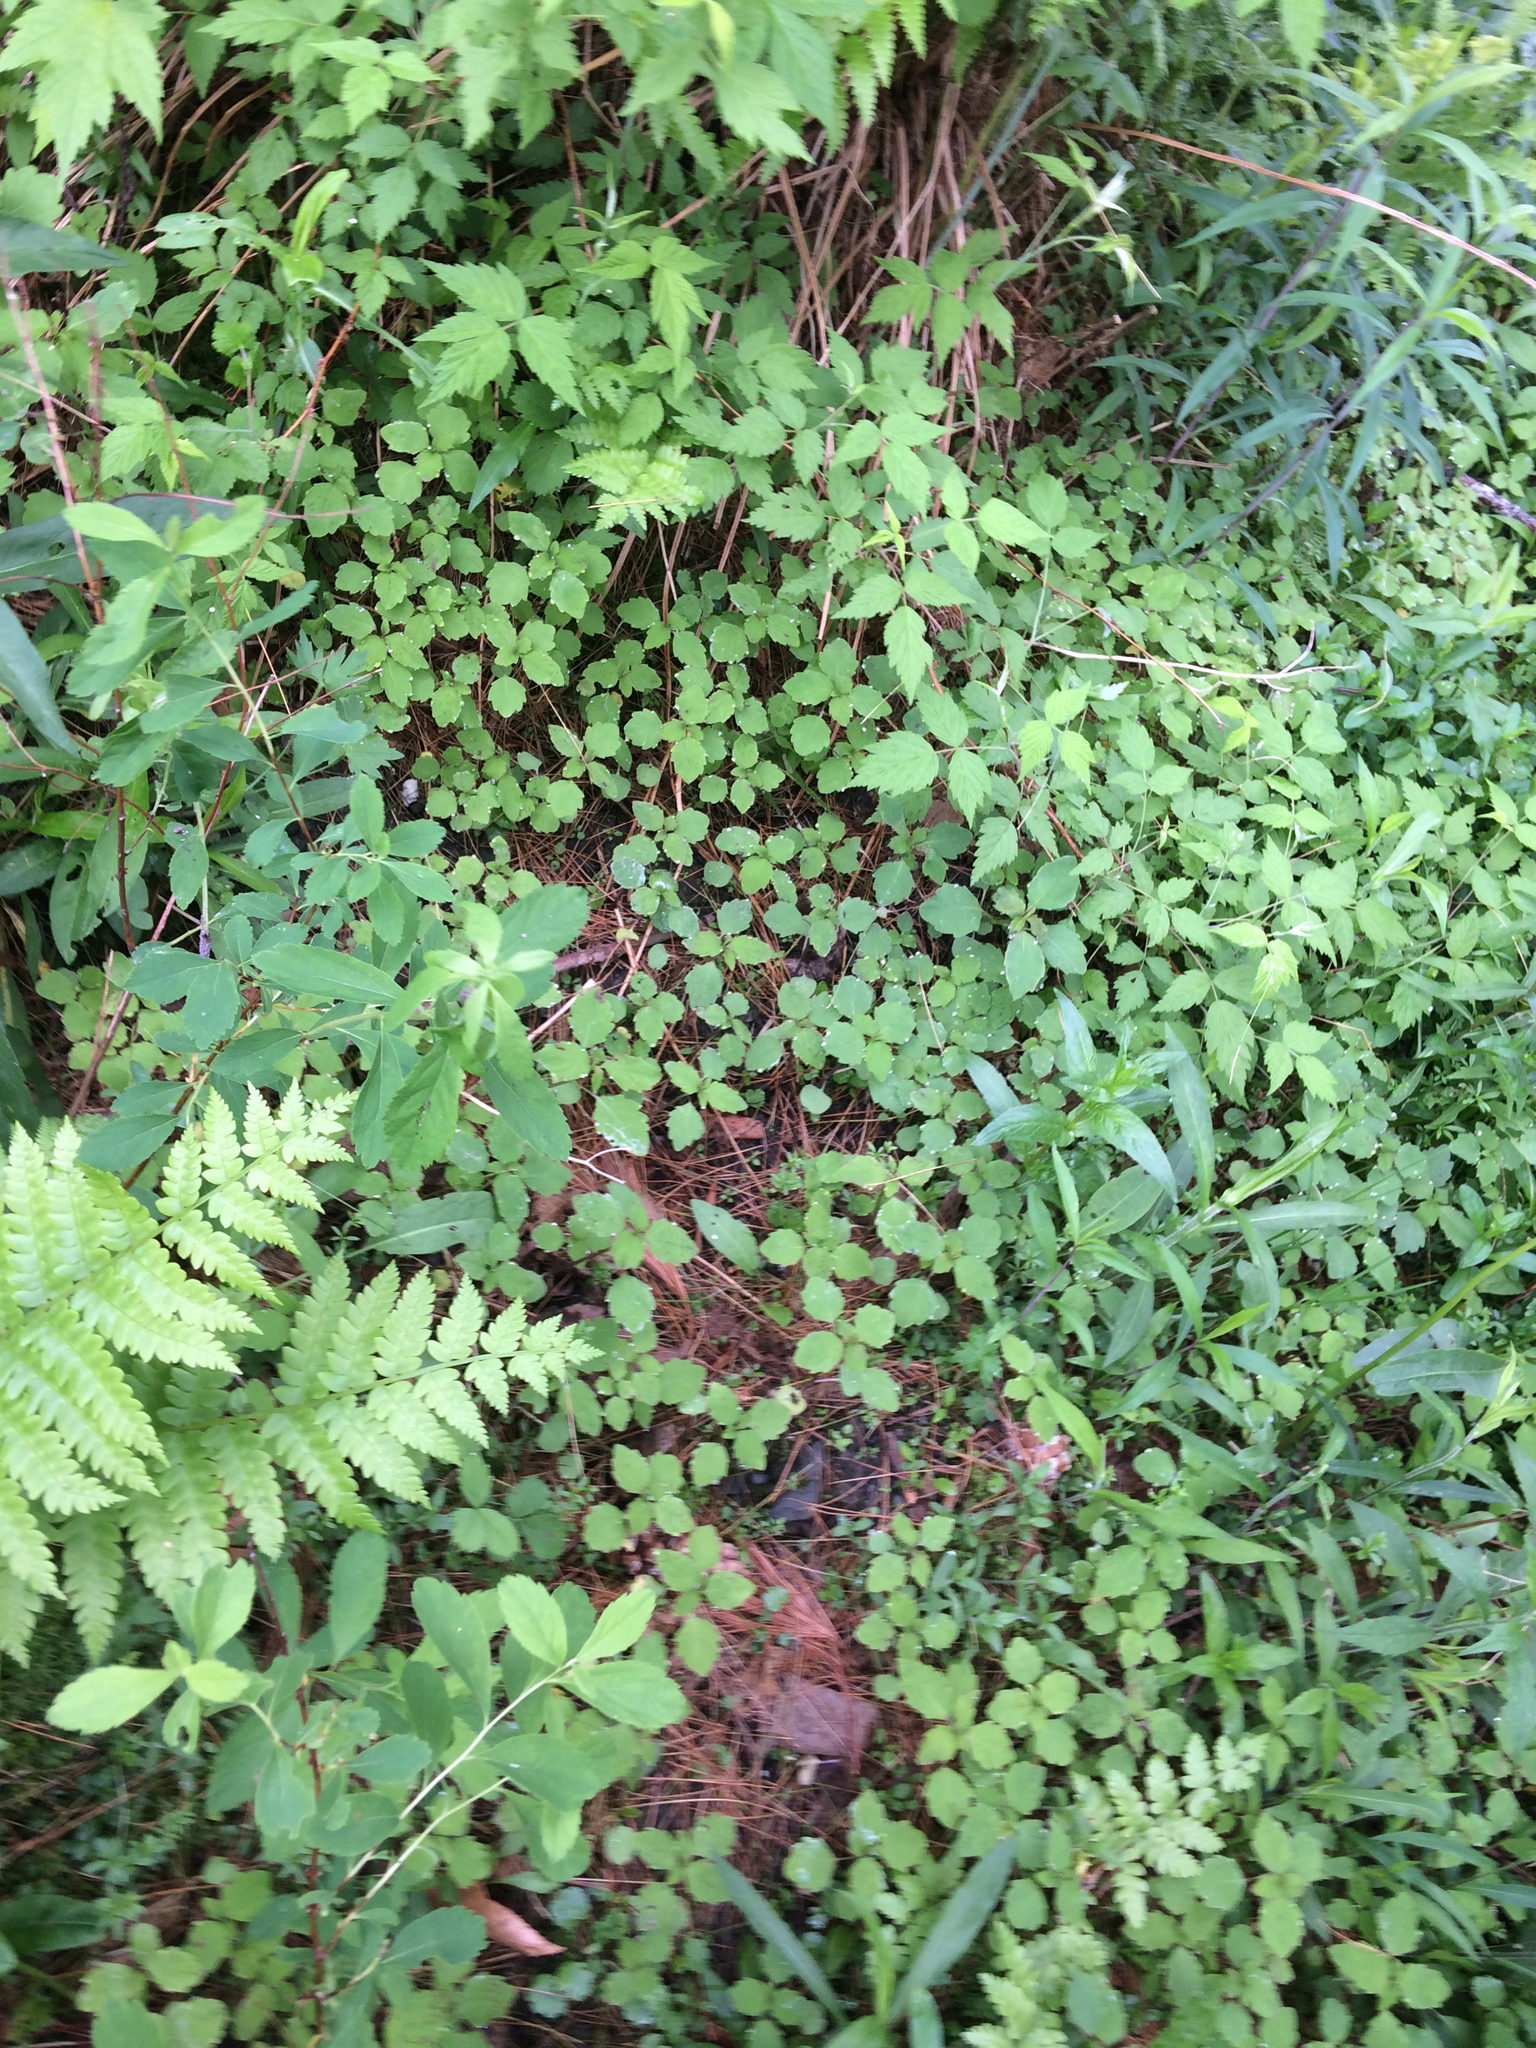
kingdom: Plantae
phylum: Tracheophyta
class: Magnoliopsida
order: Ericales
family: Balsaminaceae
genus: Impatiens
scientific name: Impatiens capensis
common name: Orange balsam
